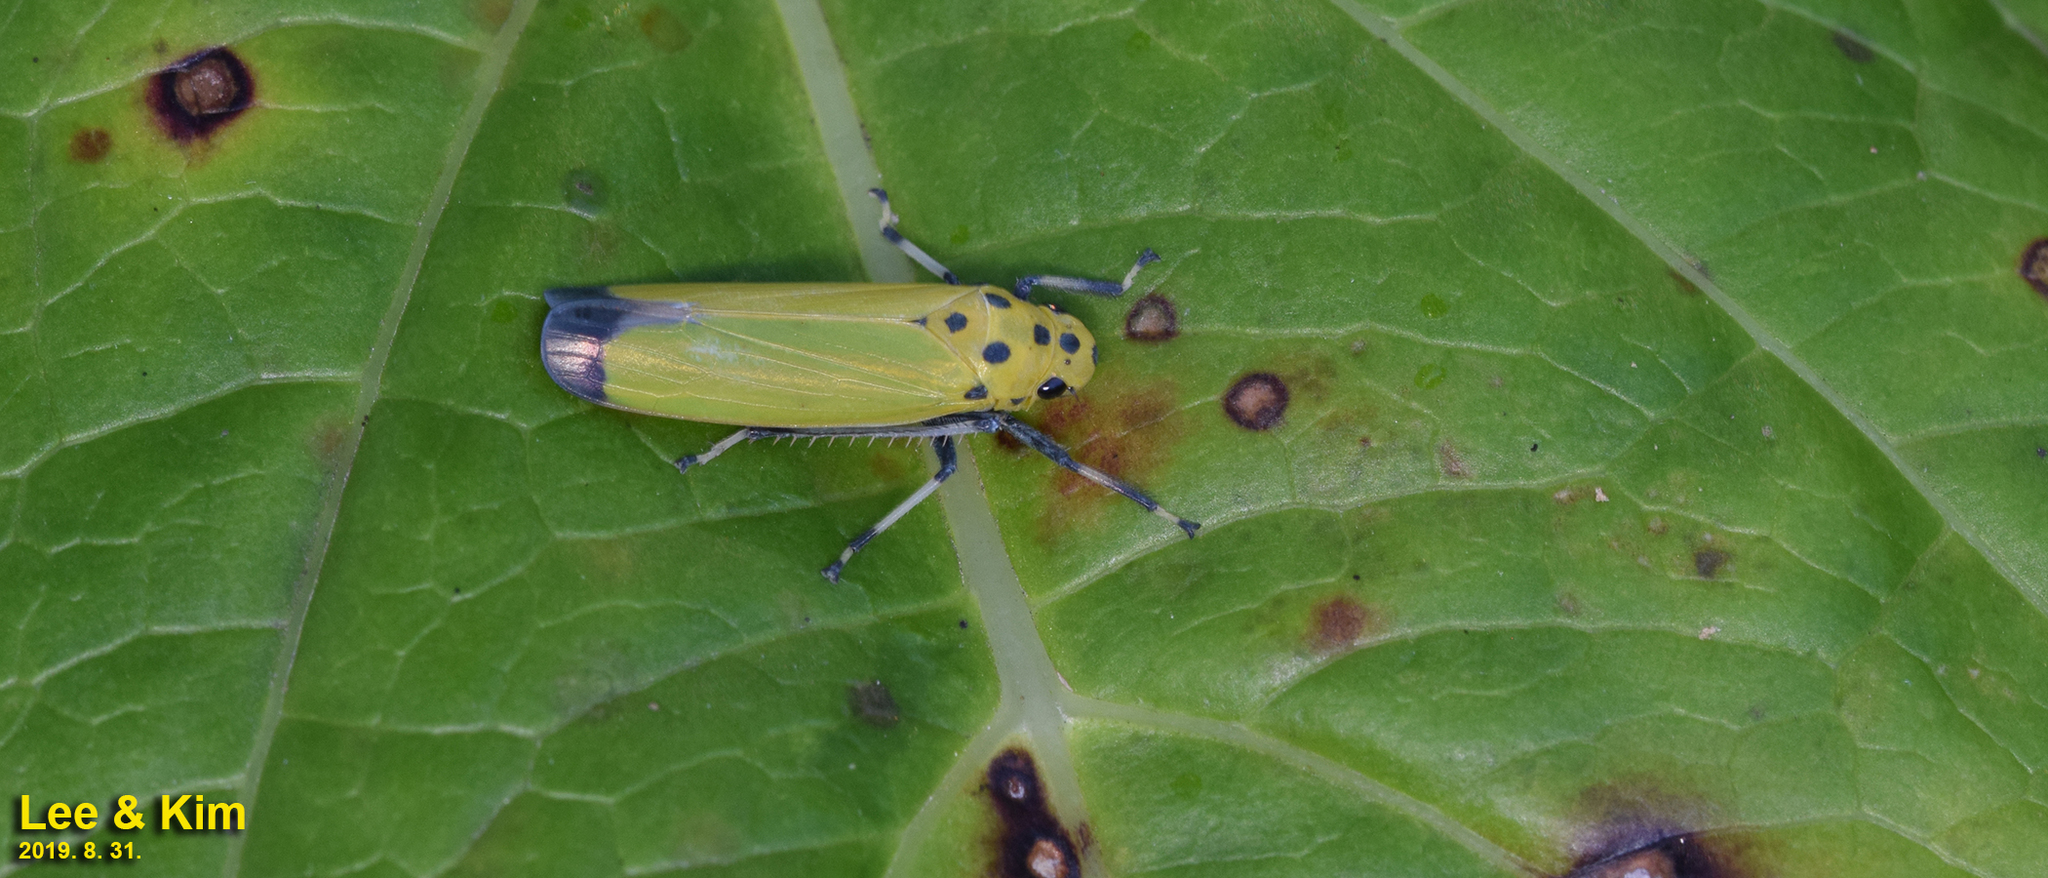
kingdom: Animalia
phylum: Arthropoda
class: Insecta
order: Hemiptera
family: Cicadellidae
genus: Bothrogonia
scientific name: Bothrogonia ferruginea
